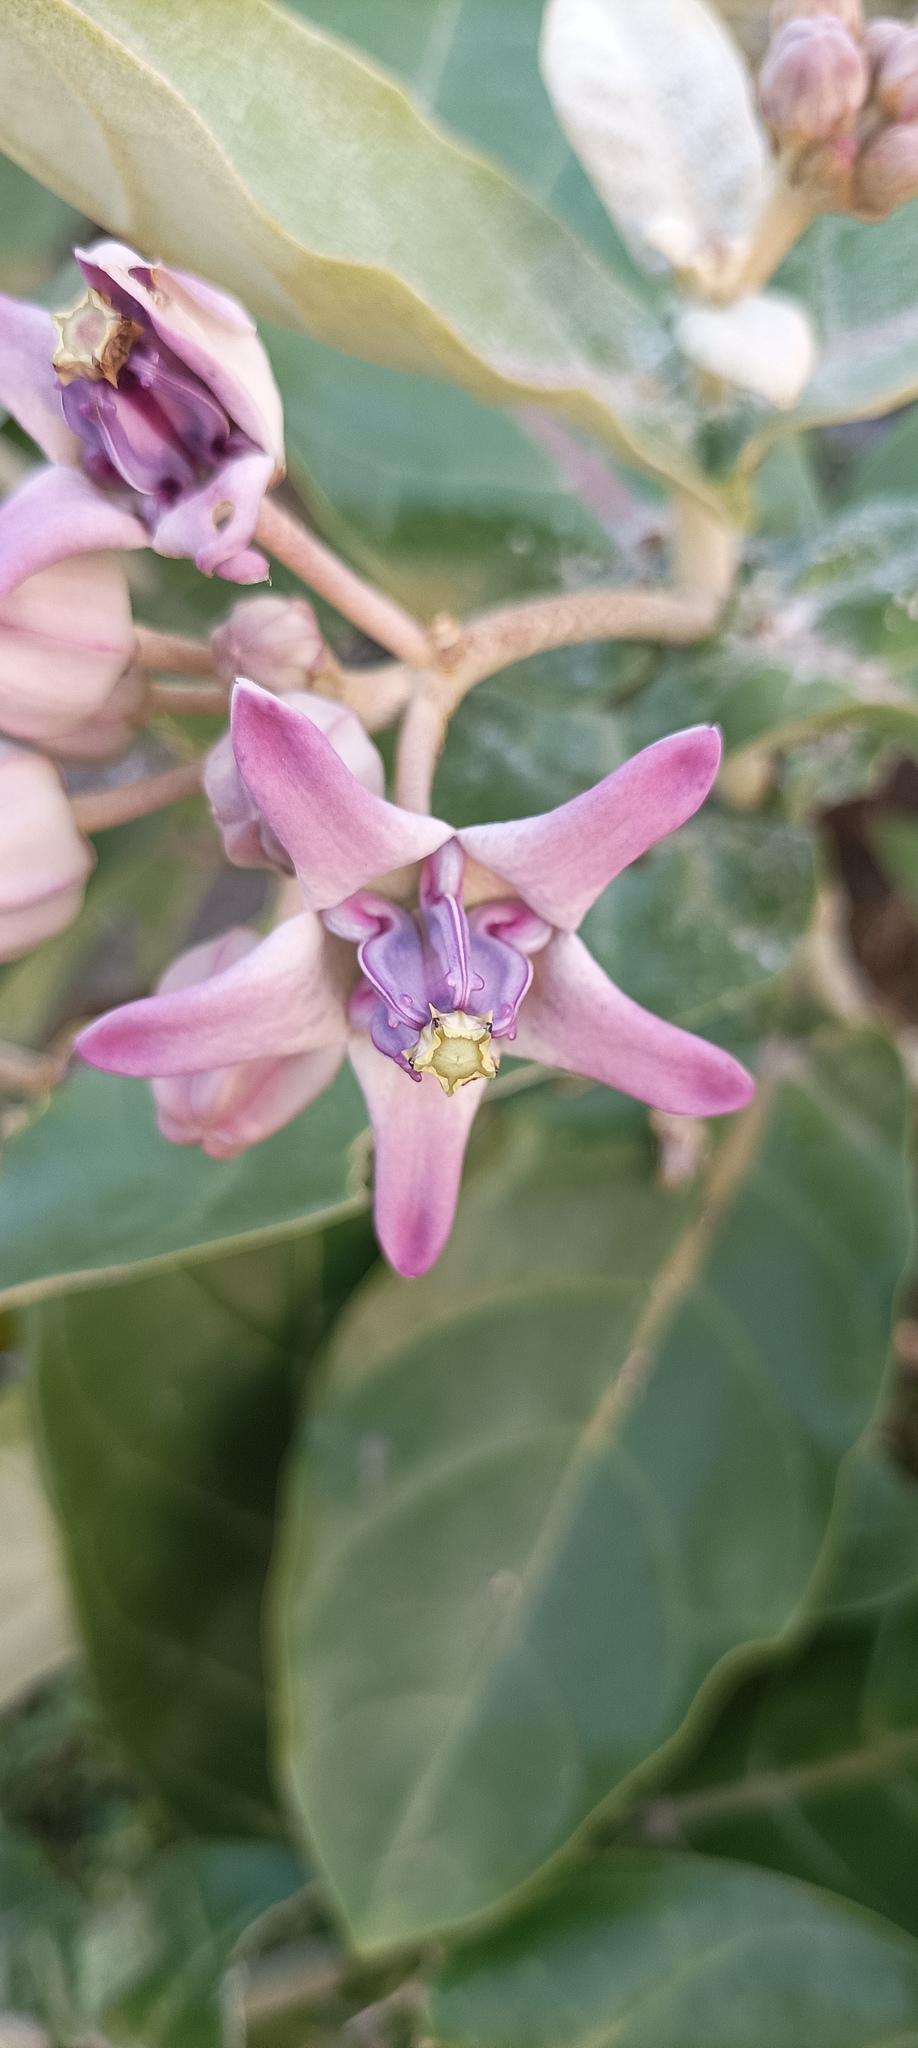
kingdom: Plantae
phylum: Tracheophyta
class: Magnoliopsida
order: Gentianales
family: Apocynaceae
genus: Calotropis
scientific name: Calotropis gigantea
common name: Crown flower
